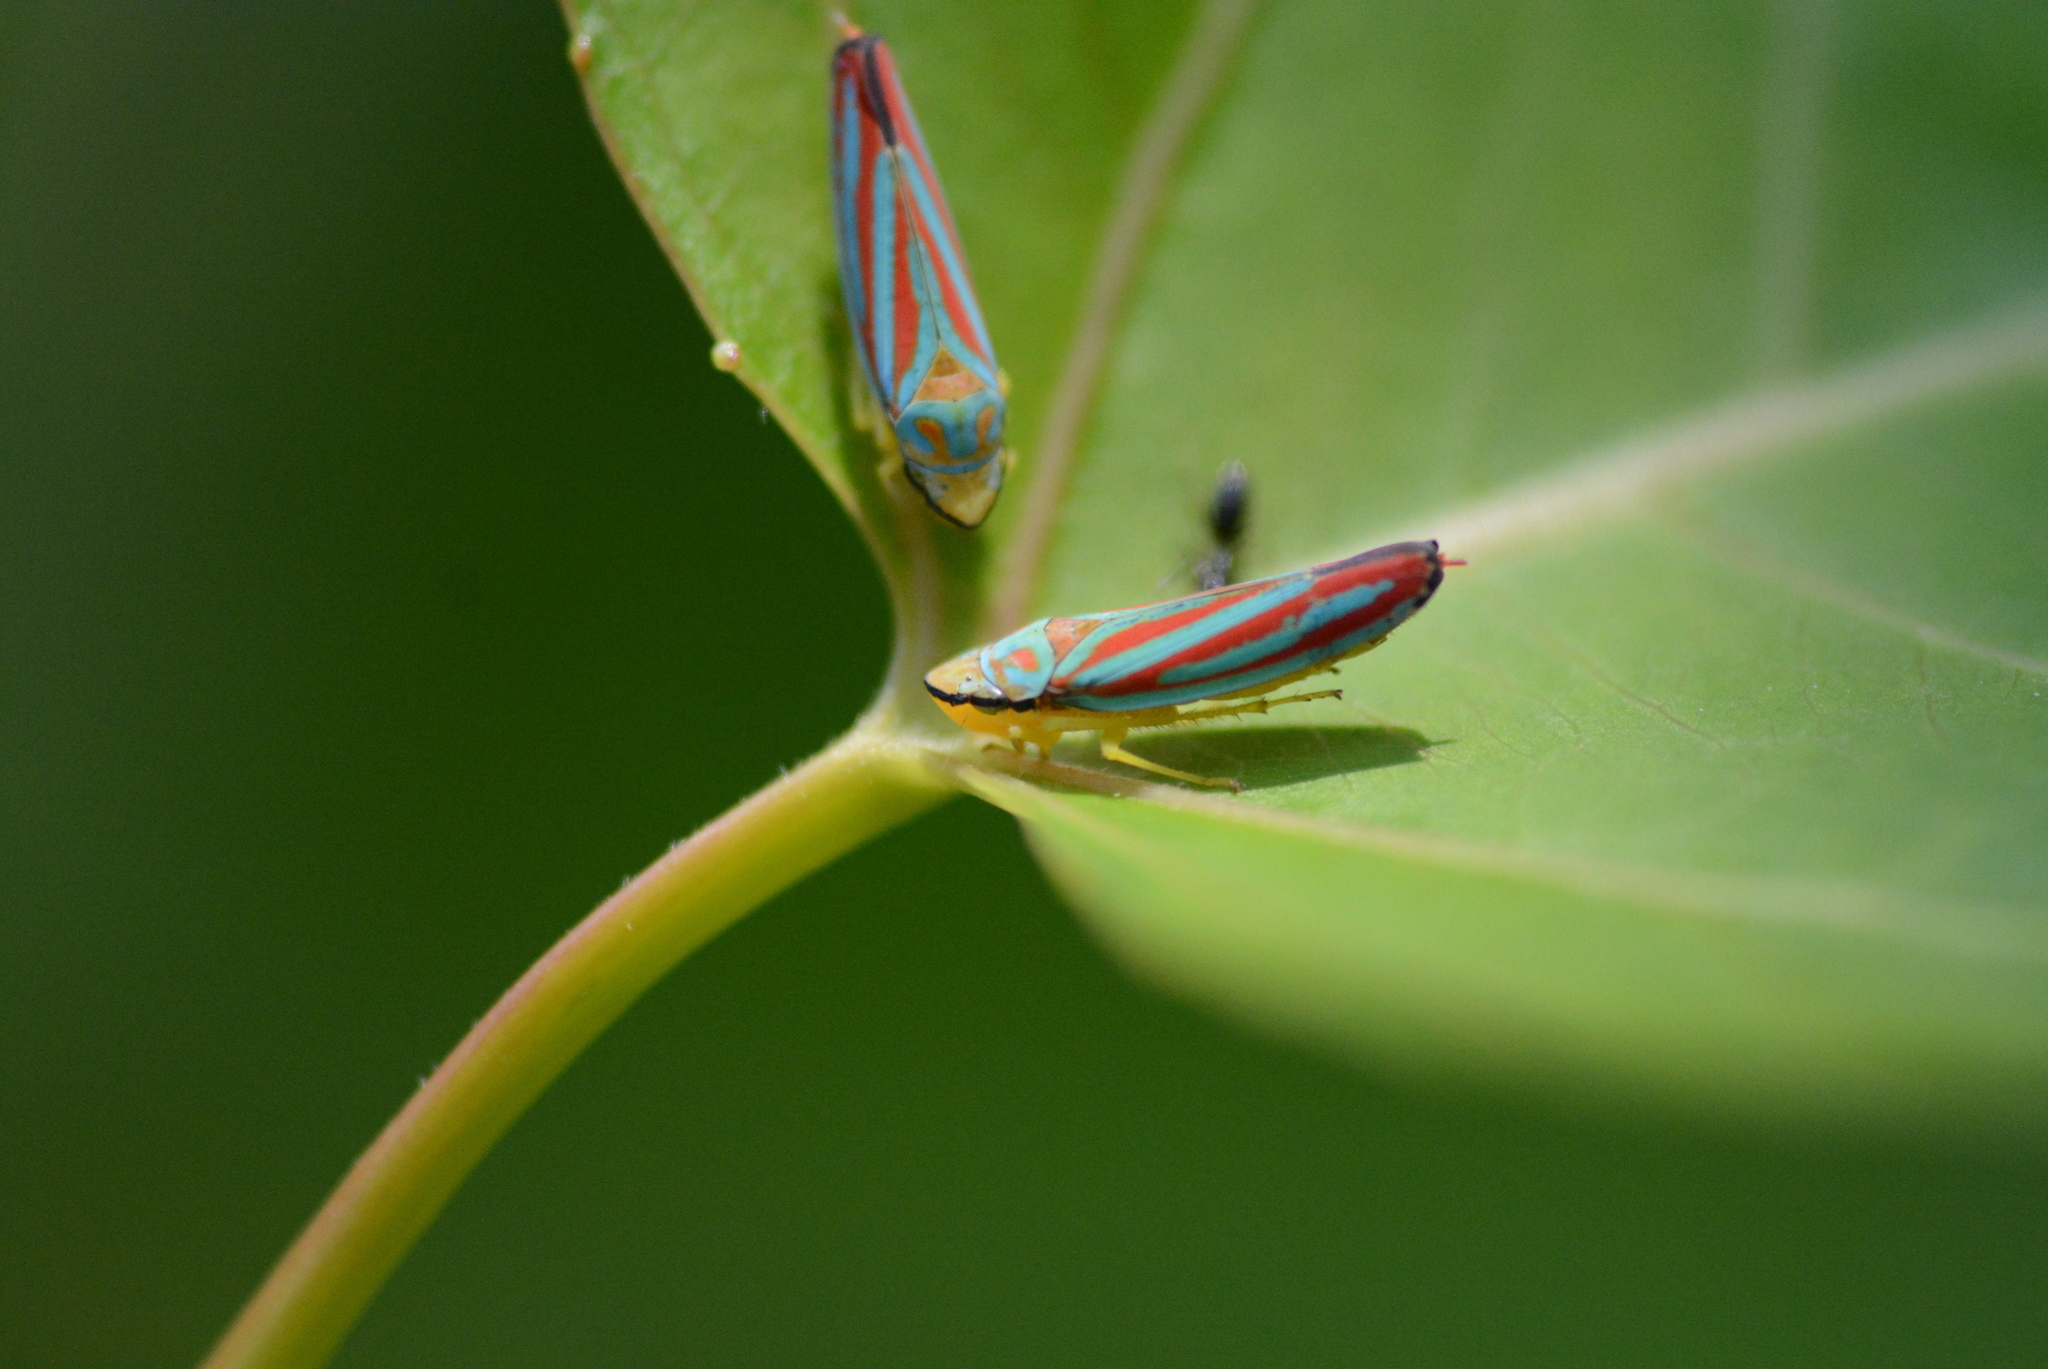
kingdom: Animalia
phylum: Arthropoda
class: Insecta
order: Hemiptera
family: Cicadellidae
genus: Graphocephala
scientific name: Graphocephala coccinea
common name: Candy-striped leafhopper
